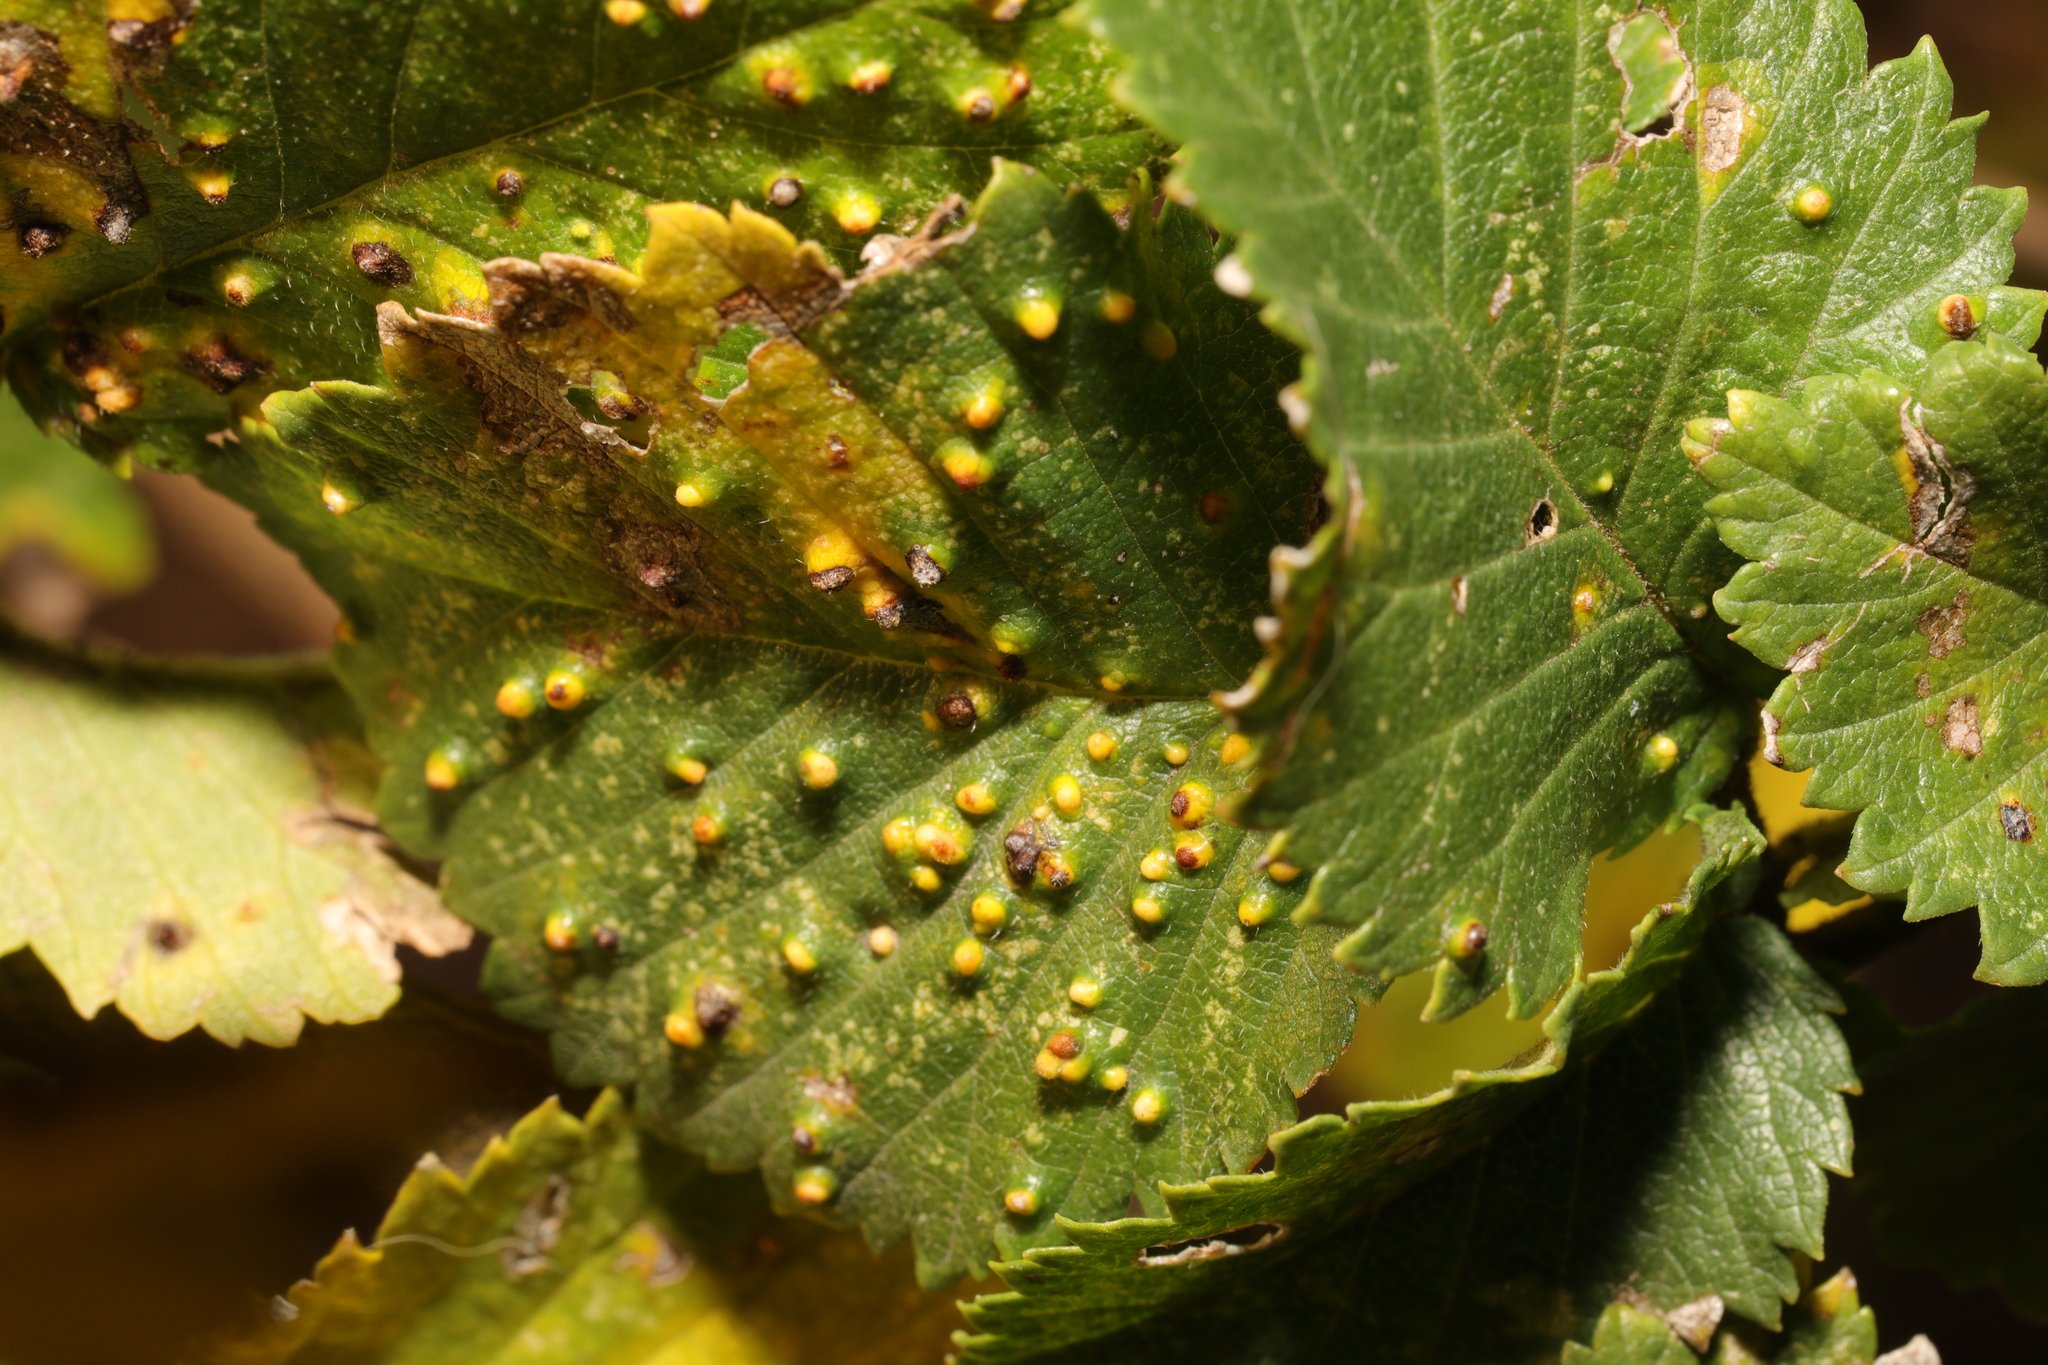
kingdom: Animalia
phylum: Arthropoda
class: Arachnida
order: Trombidiformes
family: Eriophyidae
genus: Aceria
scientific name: Aceria brevipunctata
